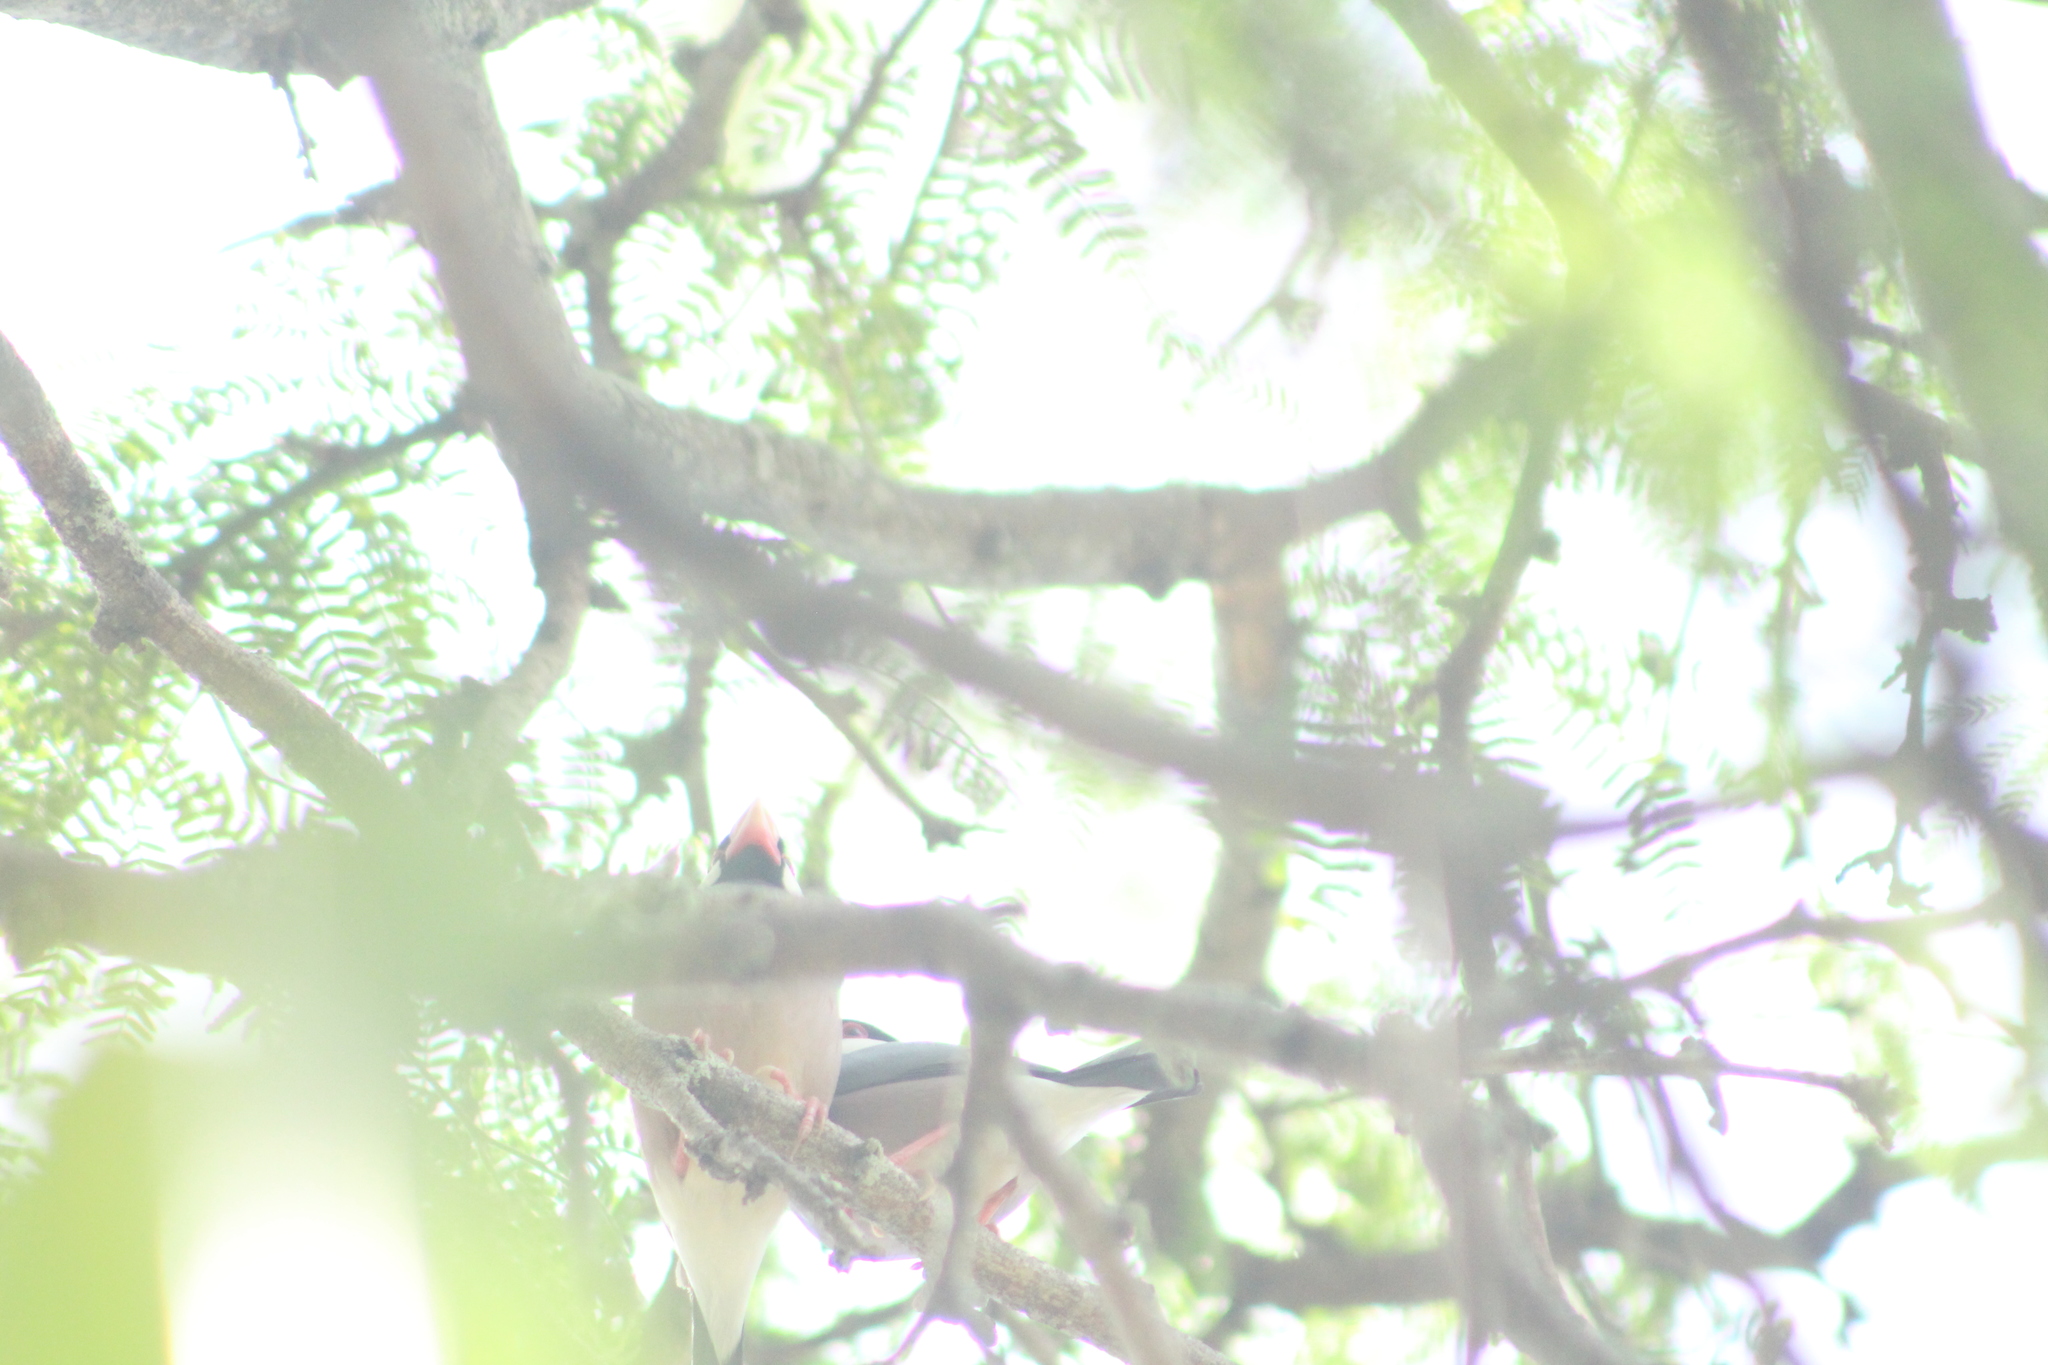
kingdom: Animalia
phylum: Chordata
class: Aves
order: Passeriformes
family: Estrildidae
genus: Lonchura
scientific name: Lonchura oryzivora
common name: Java sparrow
